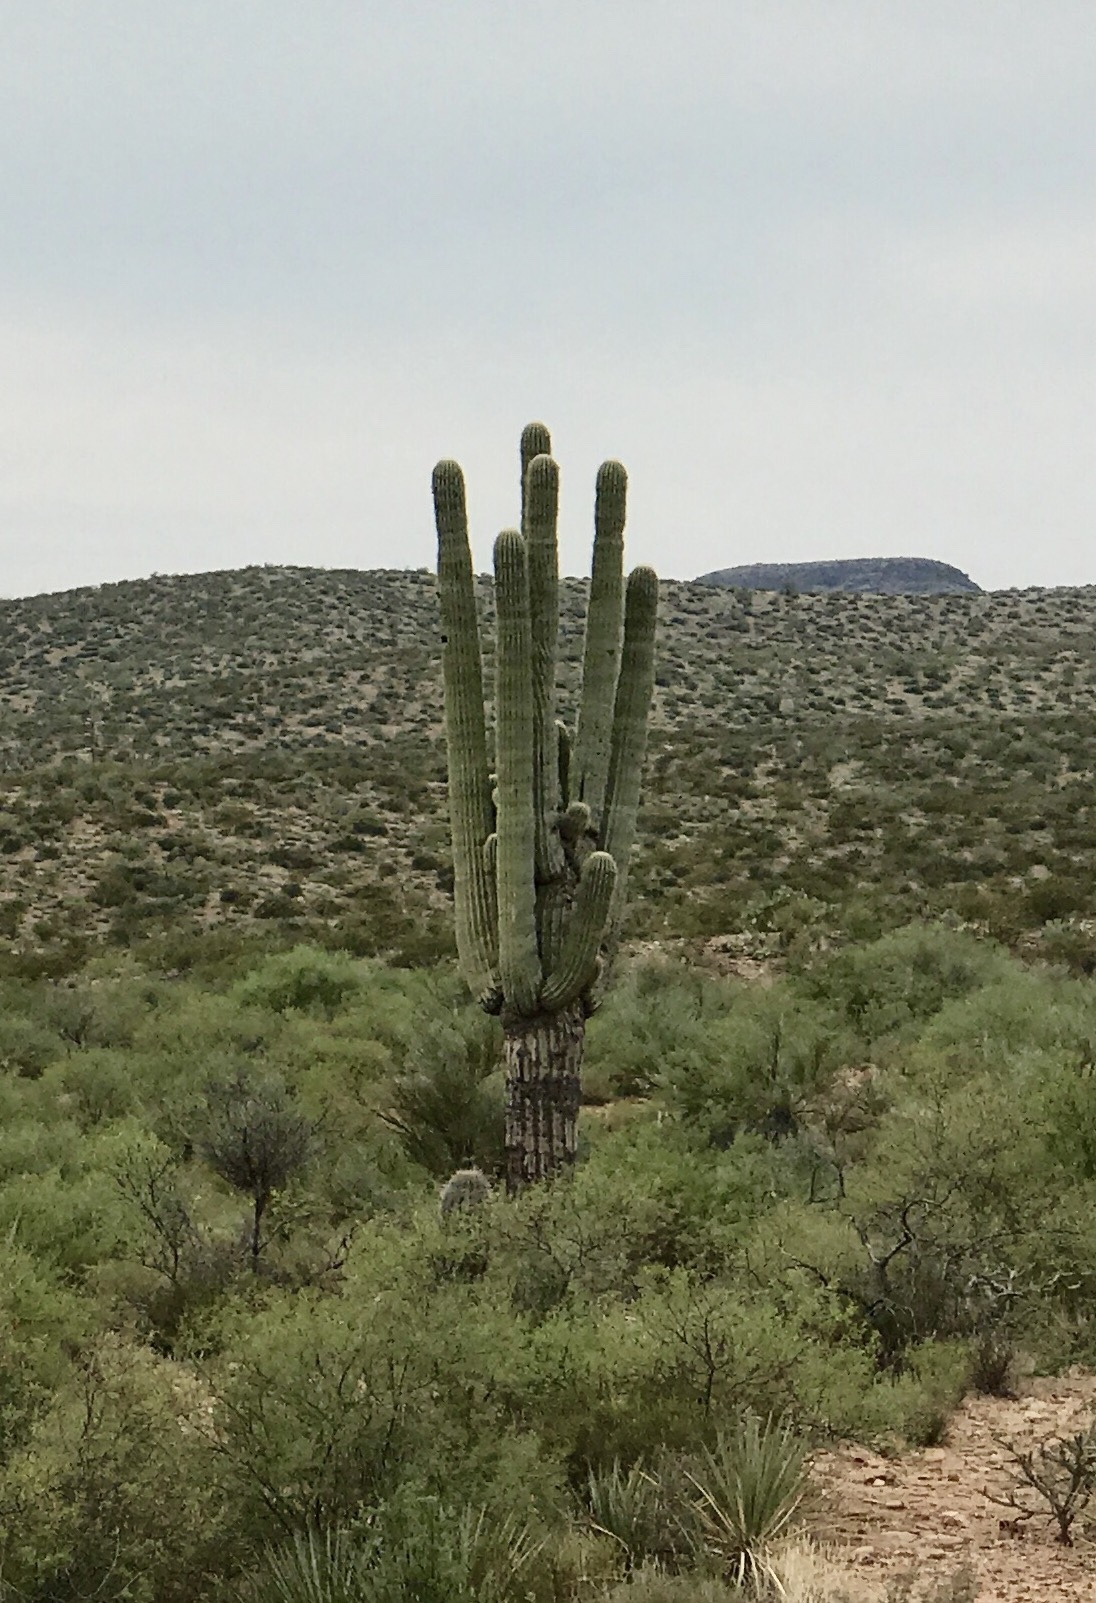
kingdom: Plantae
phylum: Tracheophyta
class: Magnoliopsida
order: Caryophyllales
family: Cactaceae
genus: Carnegiea
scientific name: Carnegiea gigantea
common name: Saguaro
